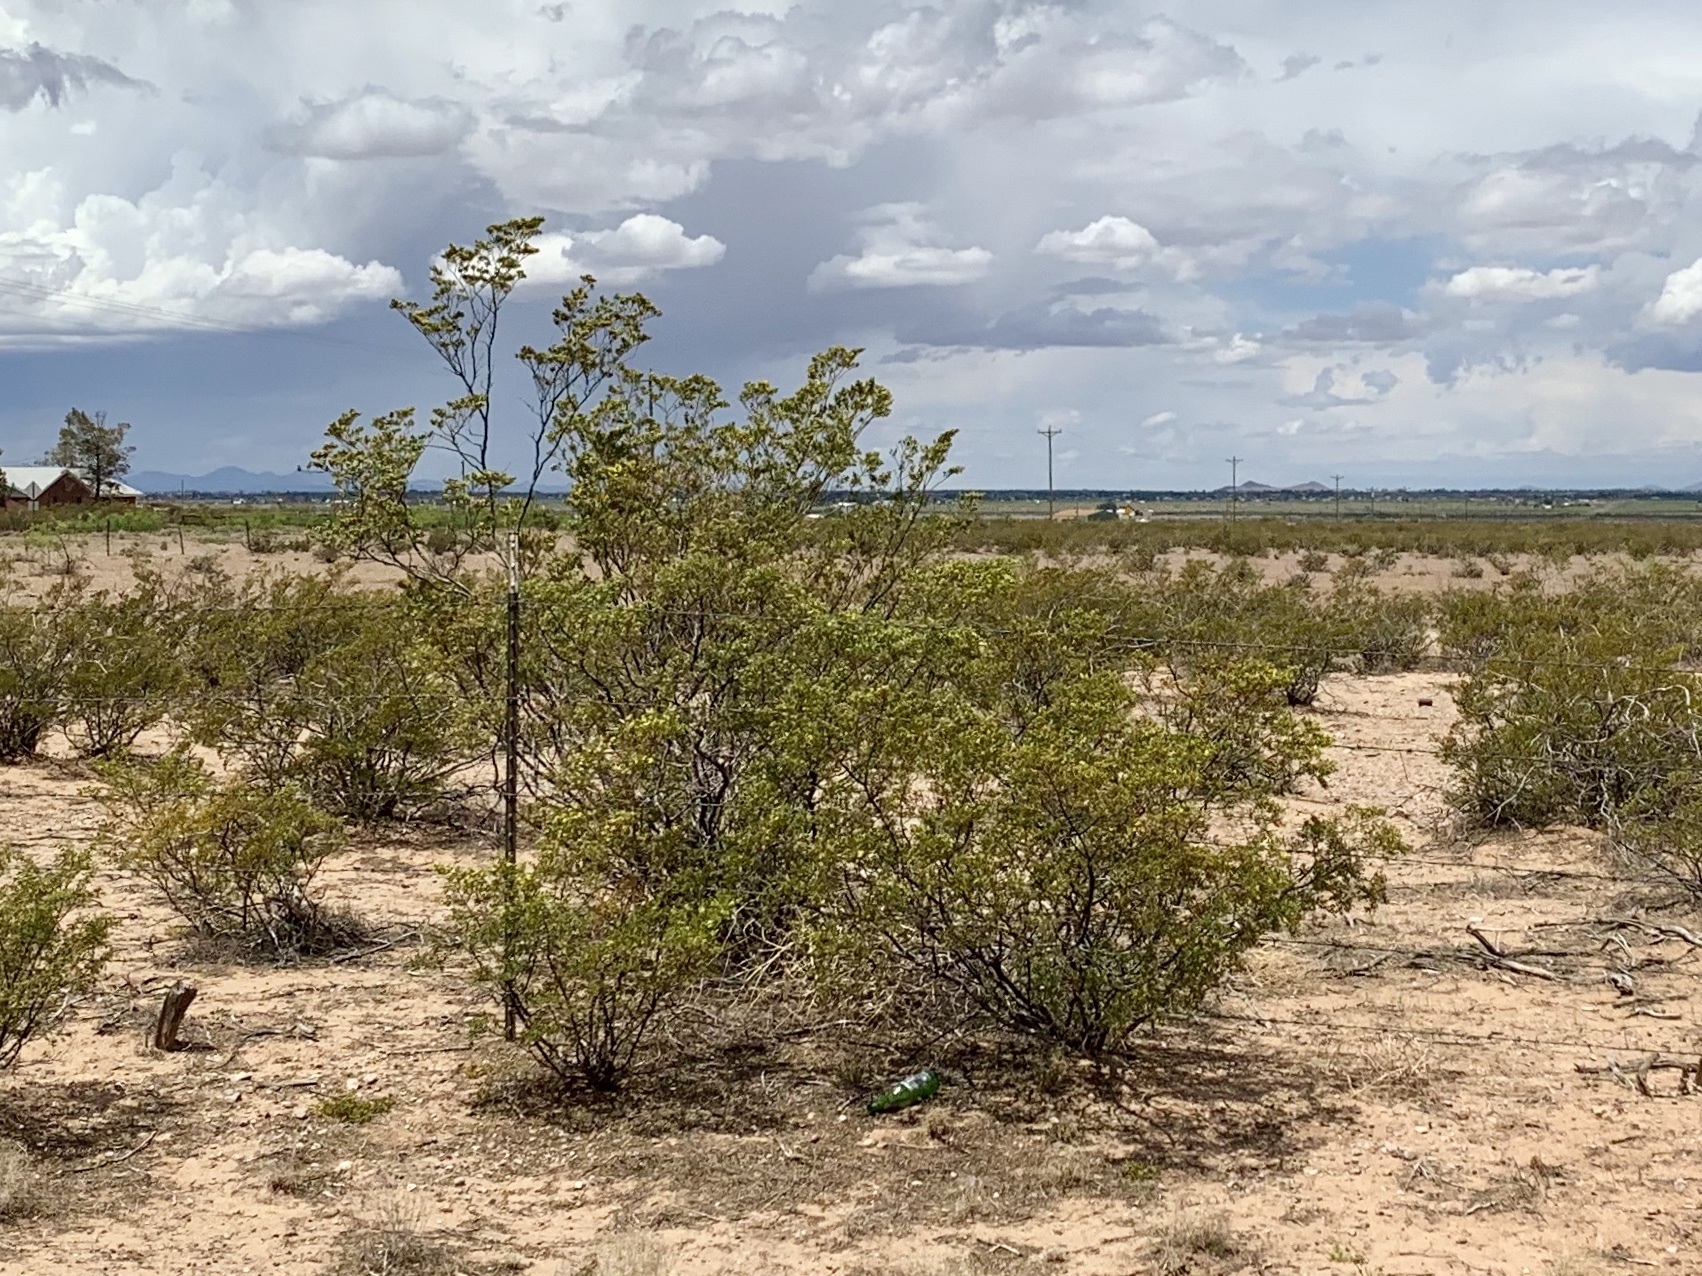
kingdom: Plantae
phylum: Tracheophyta
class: Magnoliopsida
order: Zygophyllales
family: Zygophyllaceae
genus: Larrea
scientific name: Larrea tridentata
